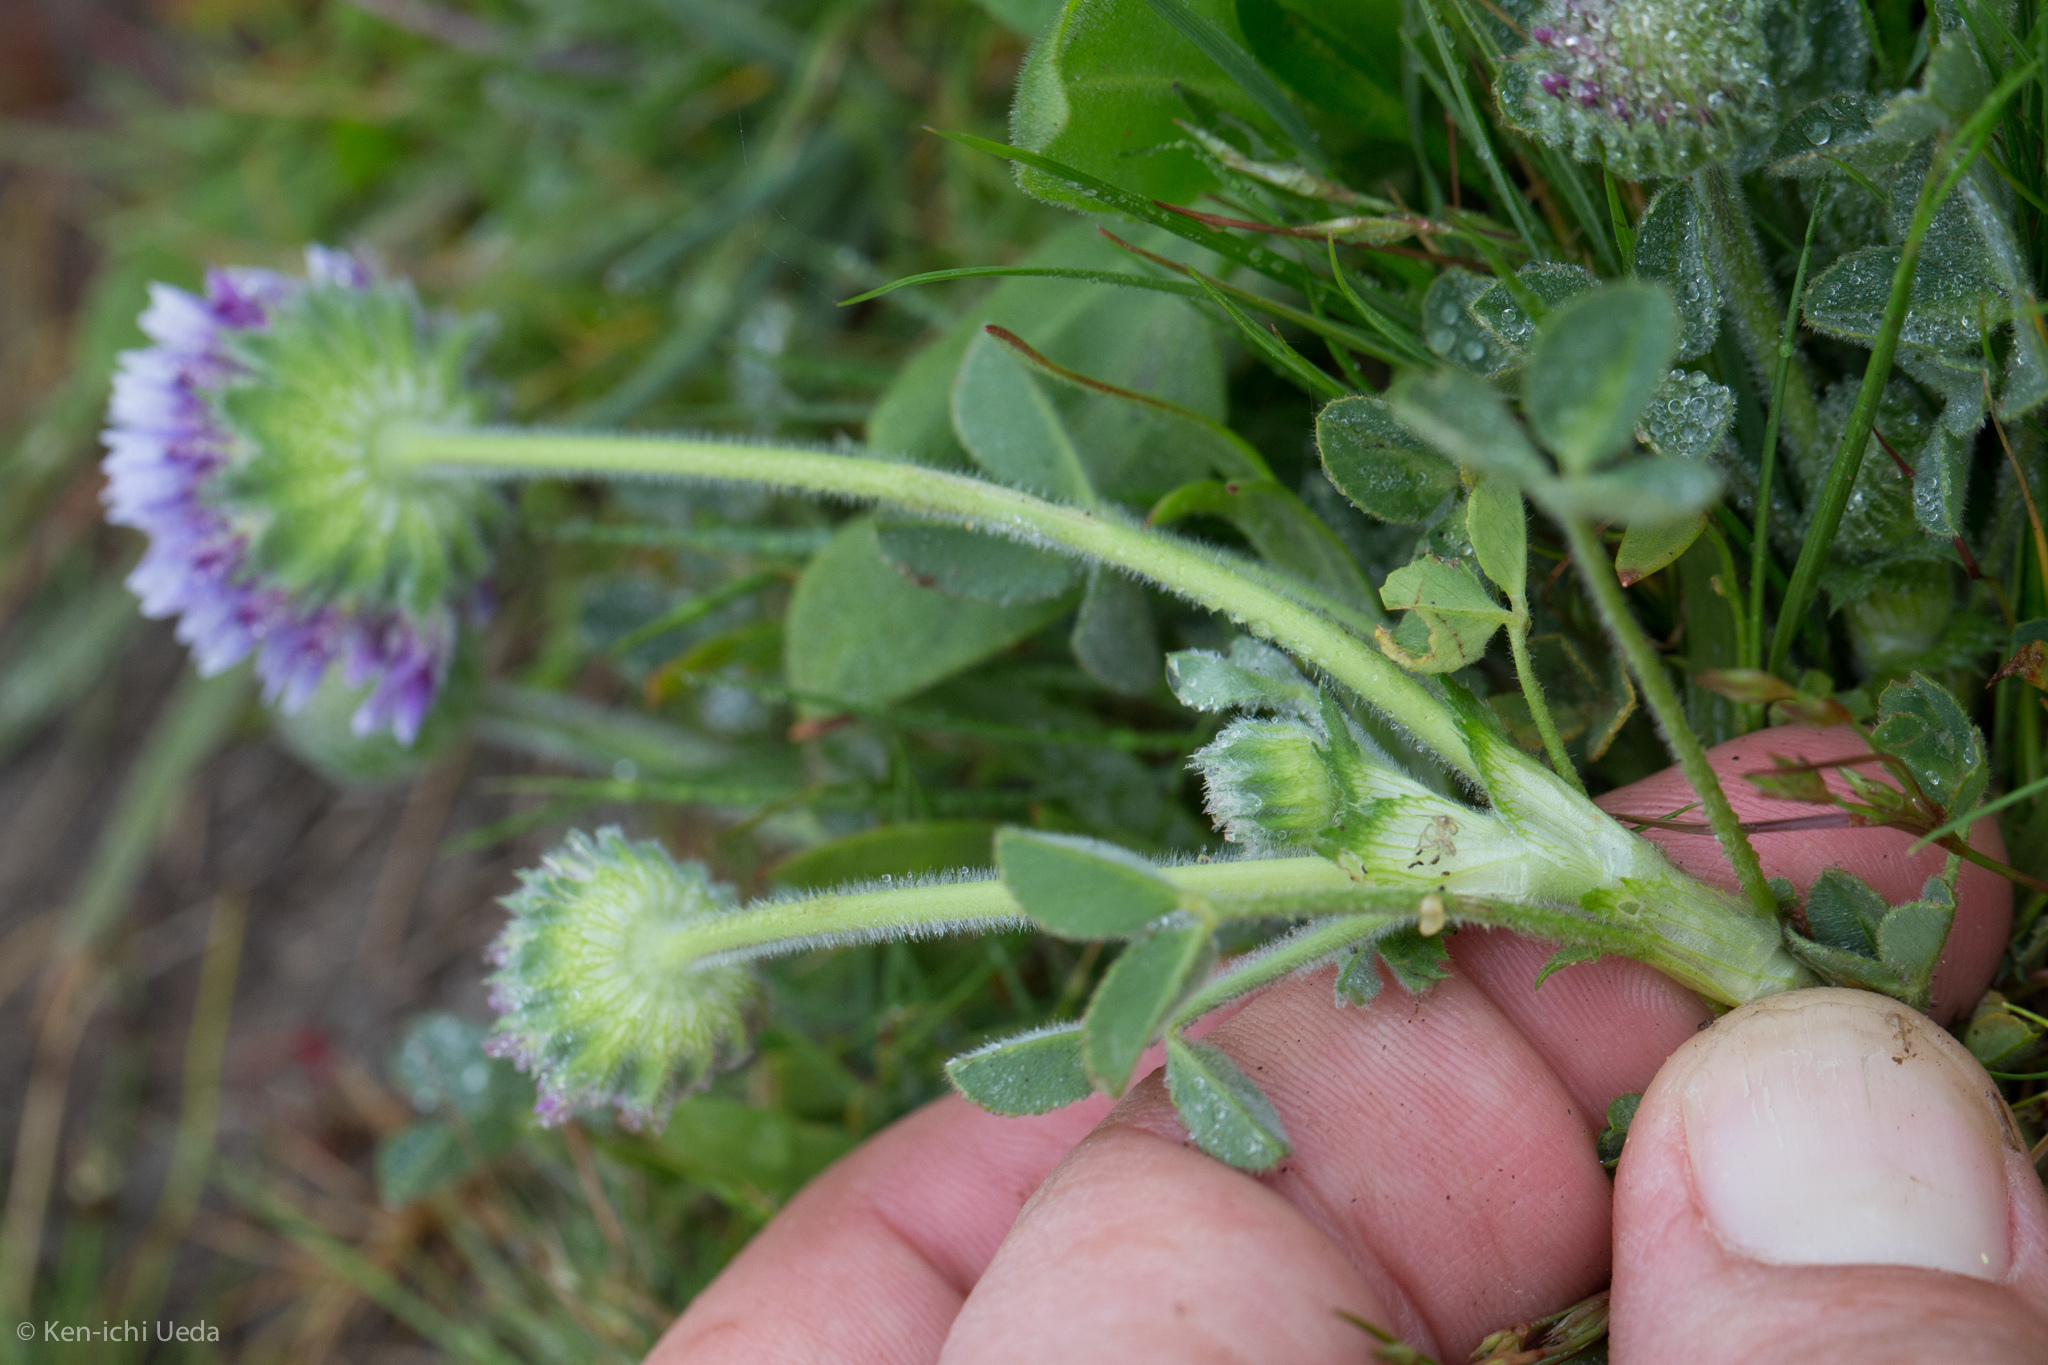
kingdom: Plantae
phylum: Tracheophyta
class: Magnoliopsida
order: Fabales
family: Fabaceae
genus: Trifolium
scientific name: Trifolium barbigerum
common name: Bearded clover
